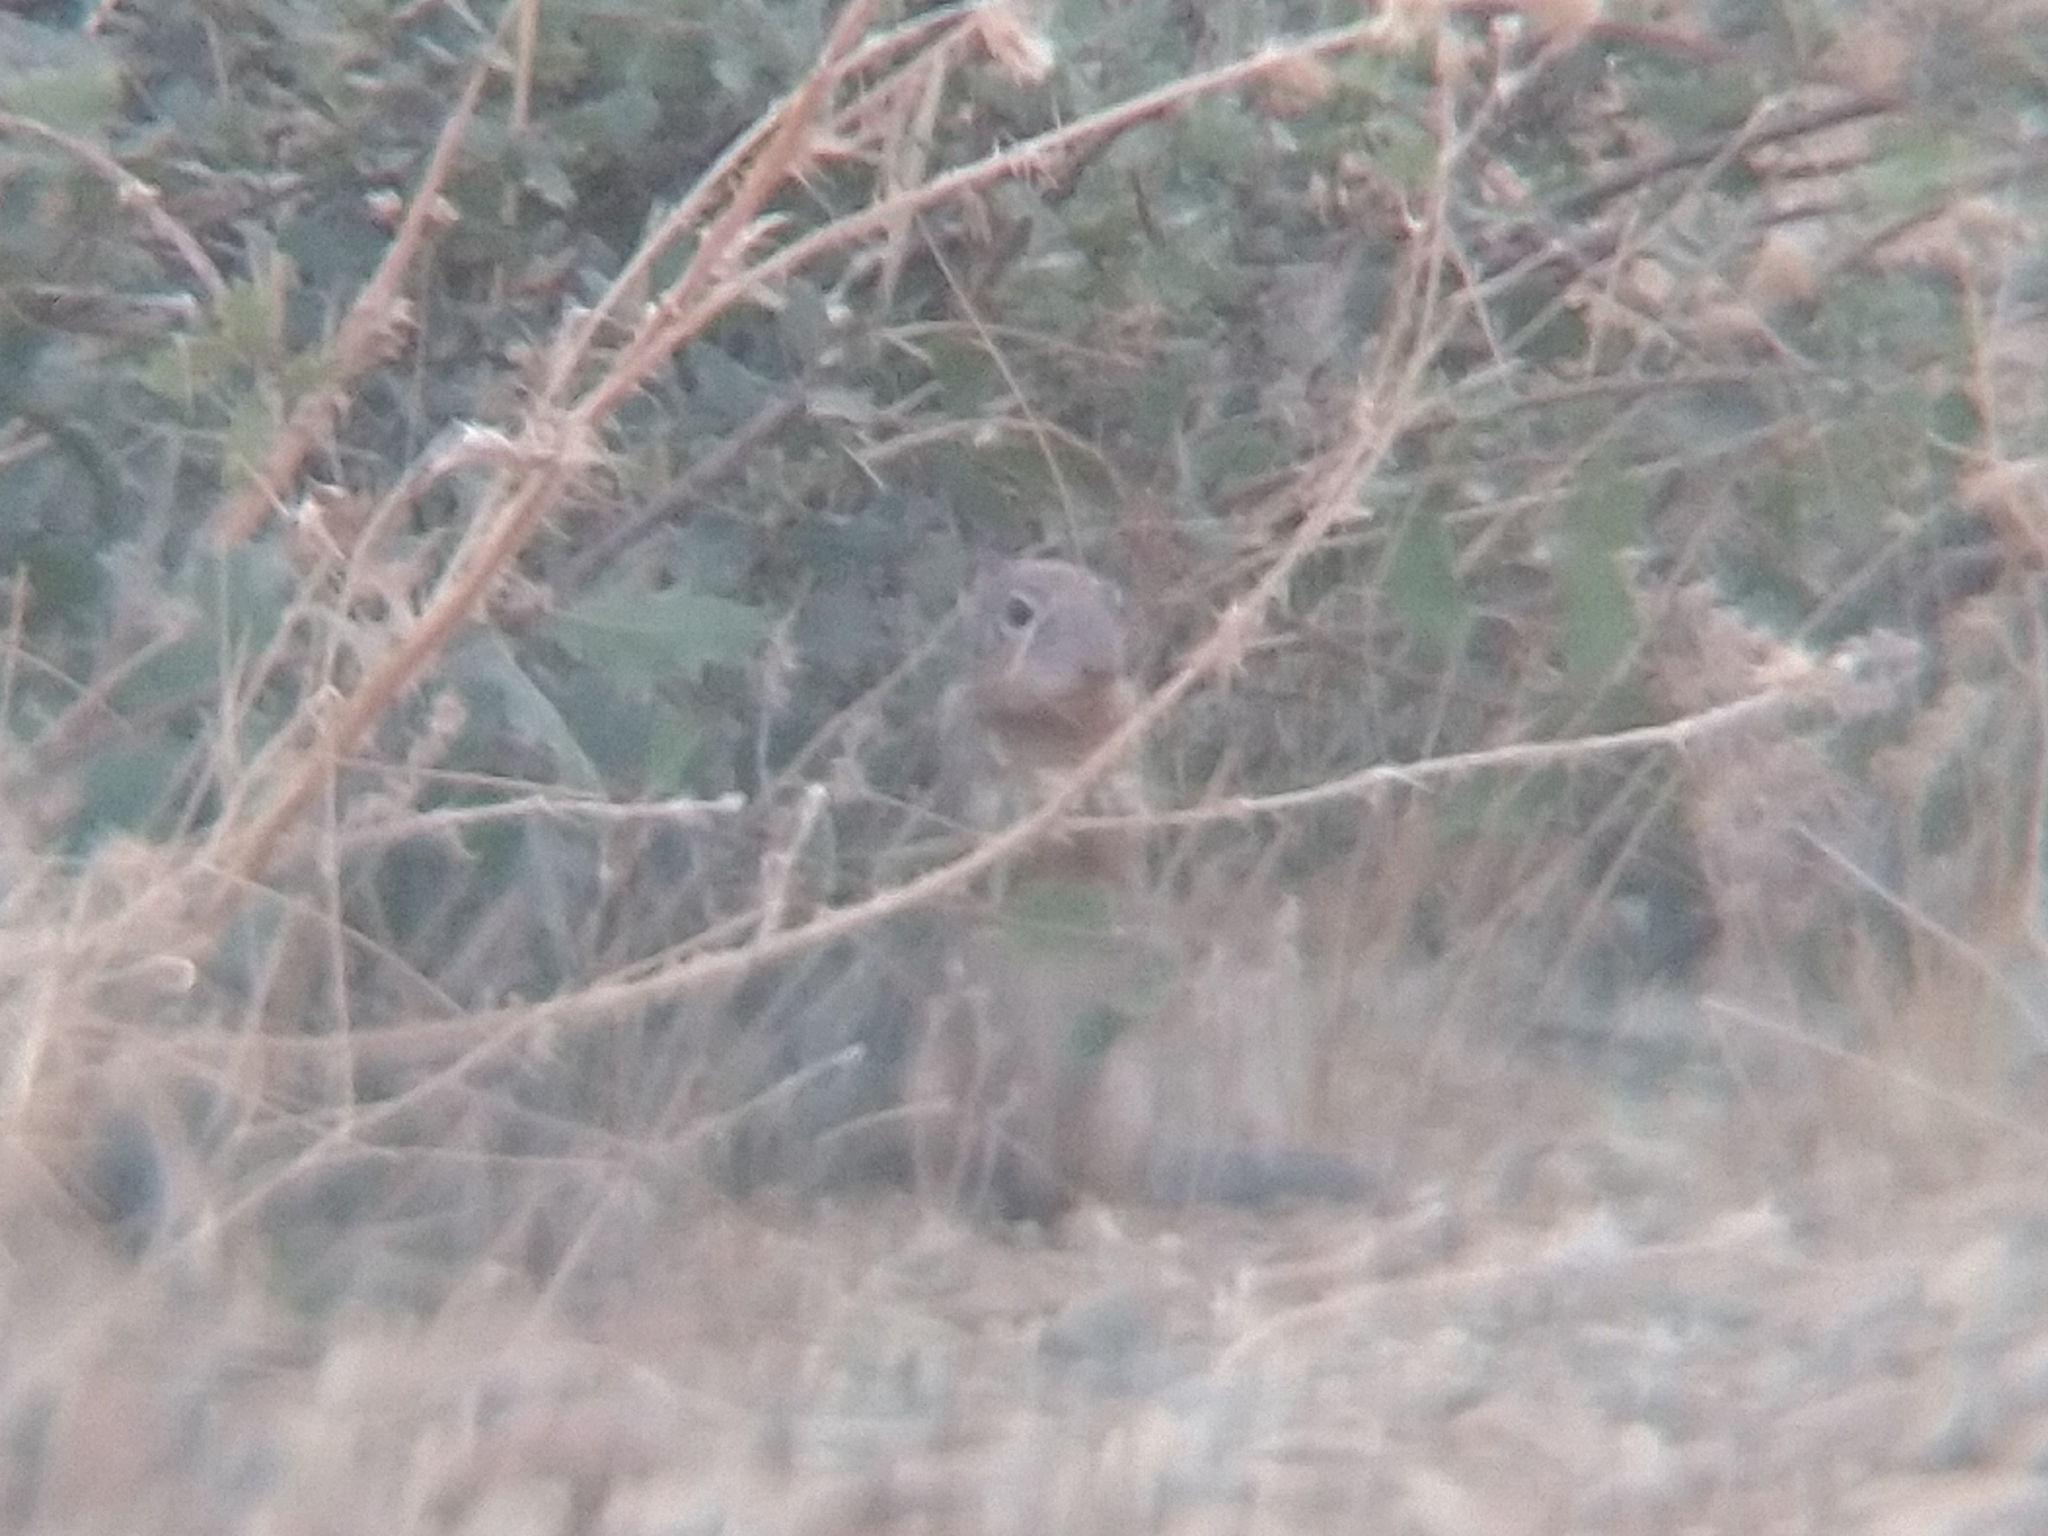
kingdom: Animalia
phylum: Chordata
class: Mammalia
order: Rodentia
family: Sciuridae
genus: Otospermophilus
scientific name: Otospermophilus beecheyi
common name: California ground squirrel
